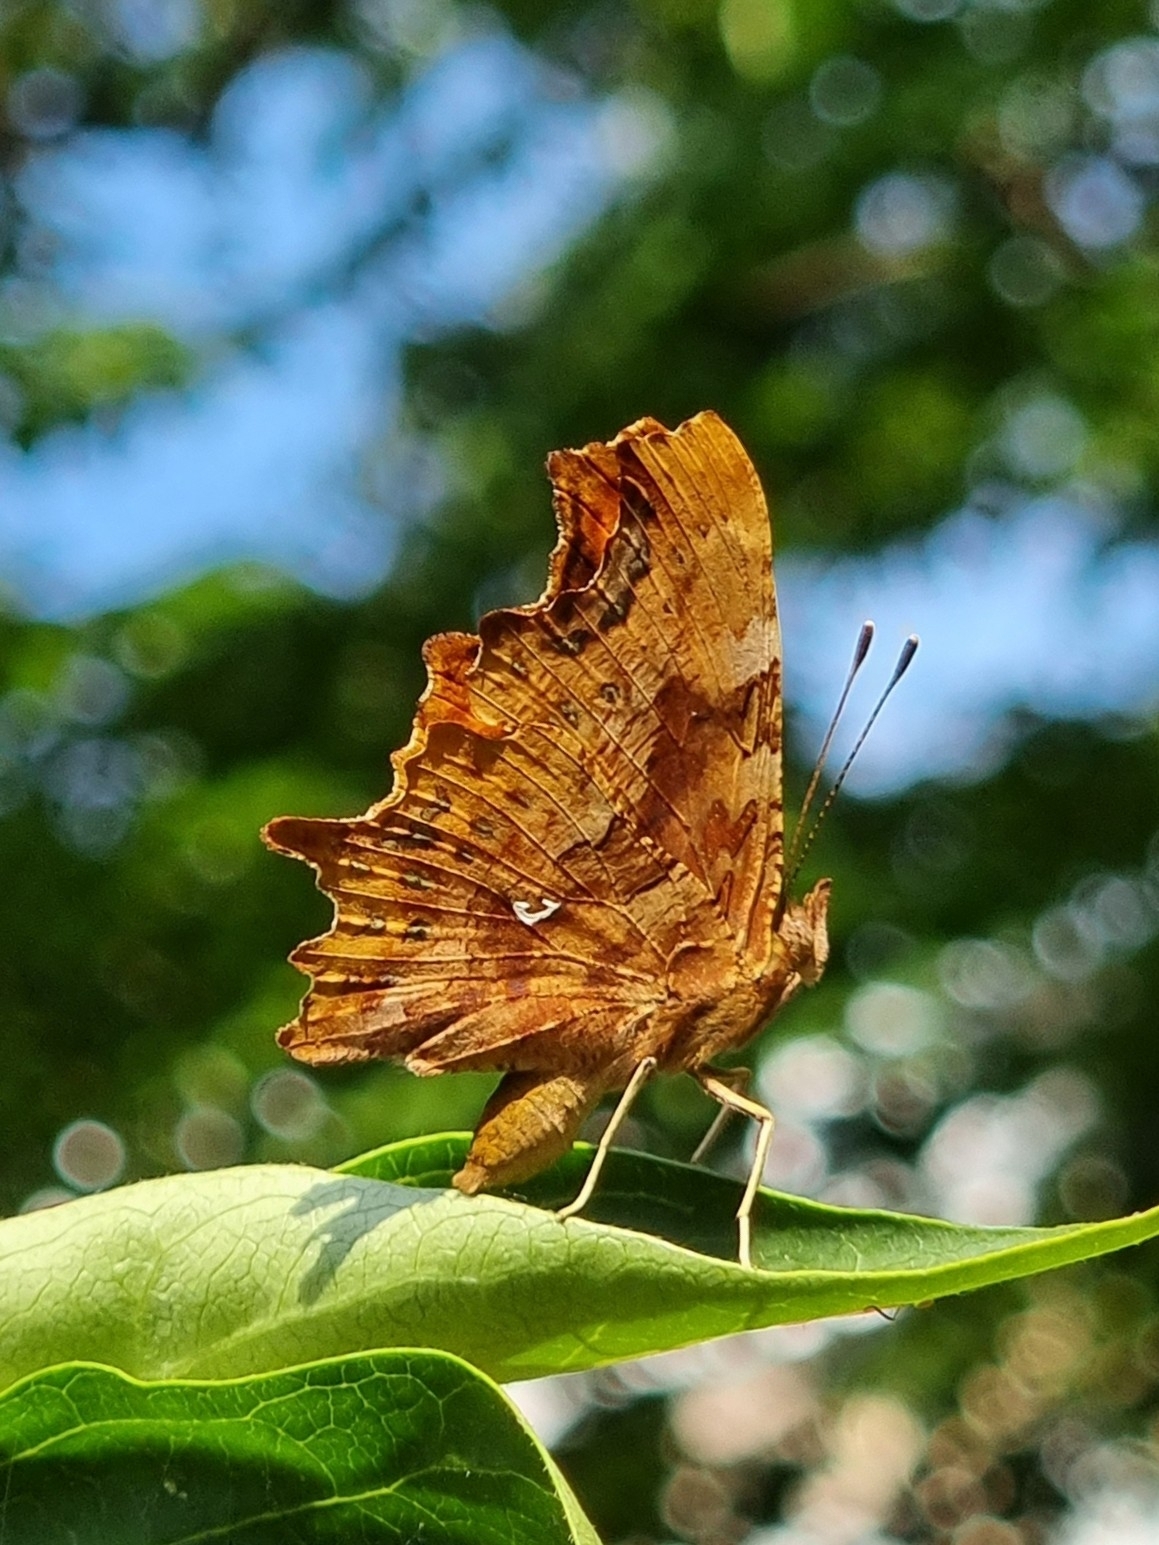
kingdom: Animalia
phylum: Arthropoda
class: Insecta
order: Lepidoptera
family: Nymphalidae
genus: Polygonia
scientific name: Polygonia c-album
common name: Comma
